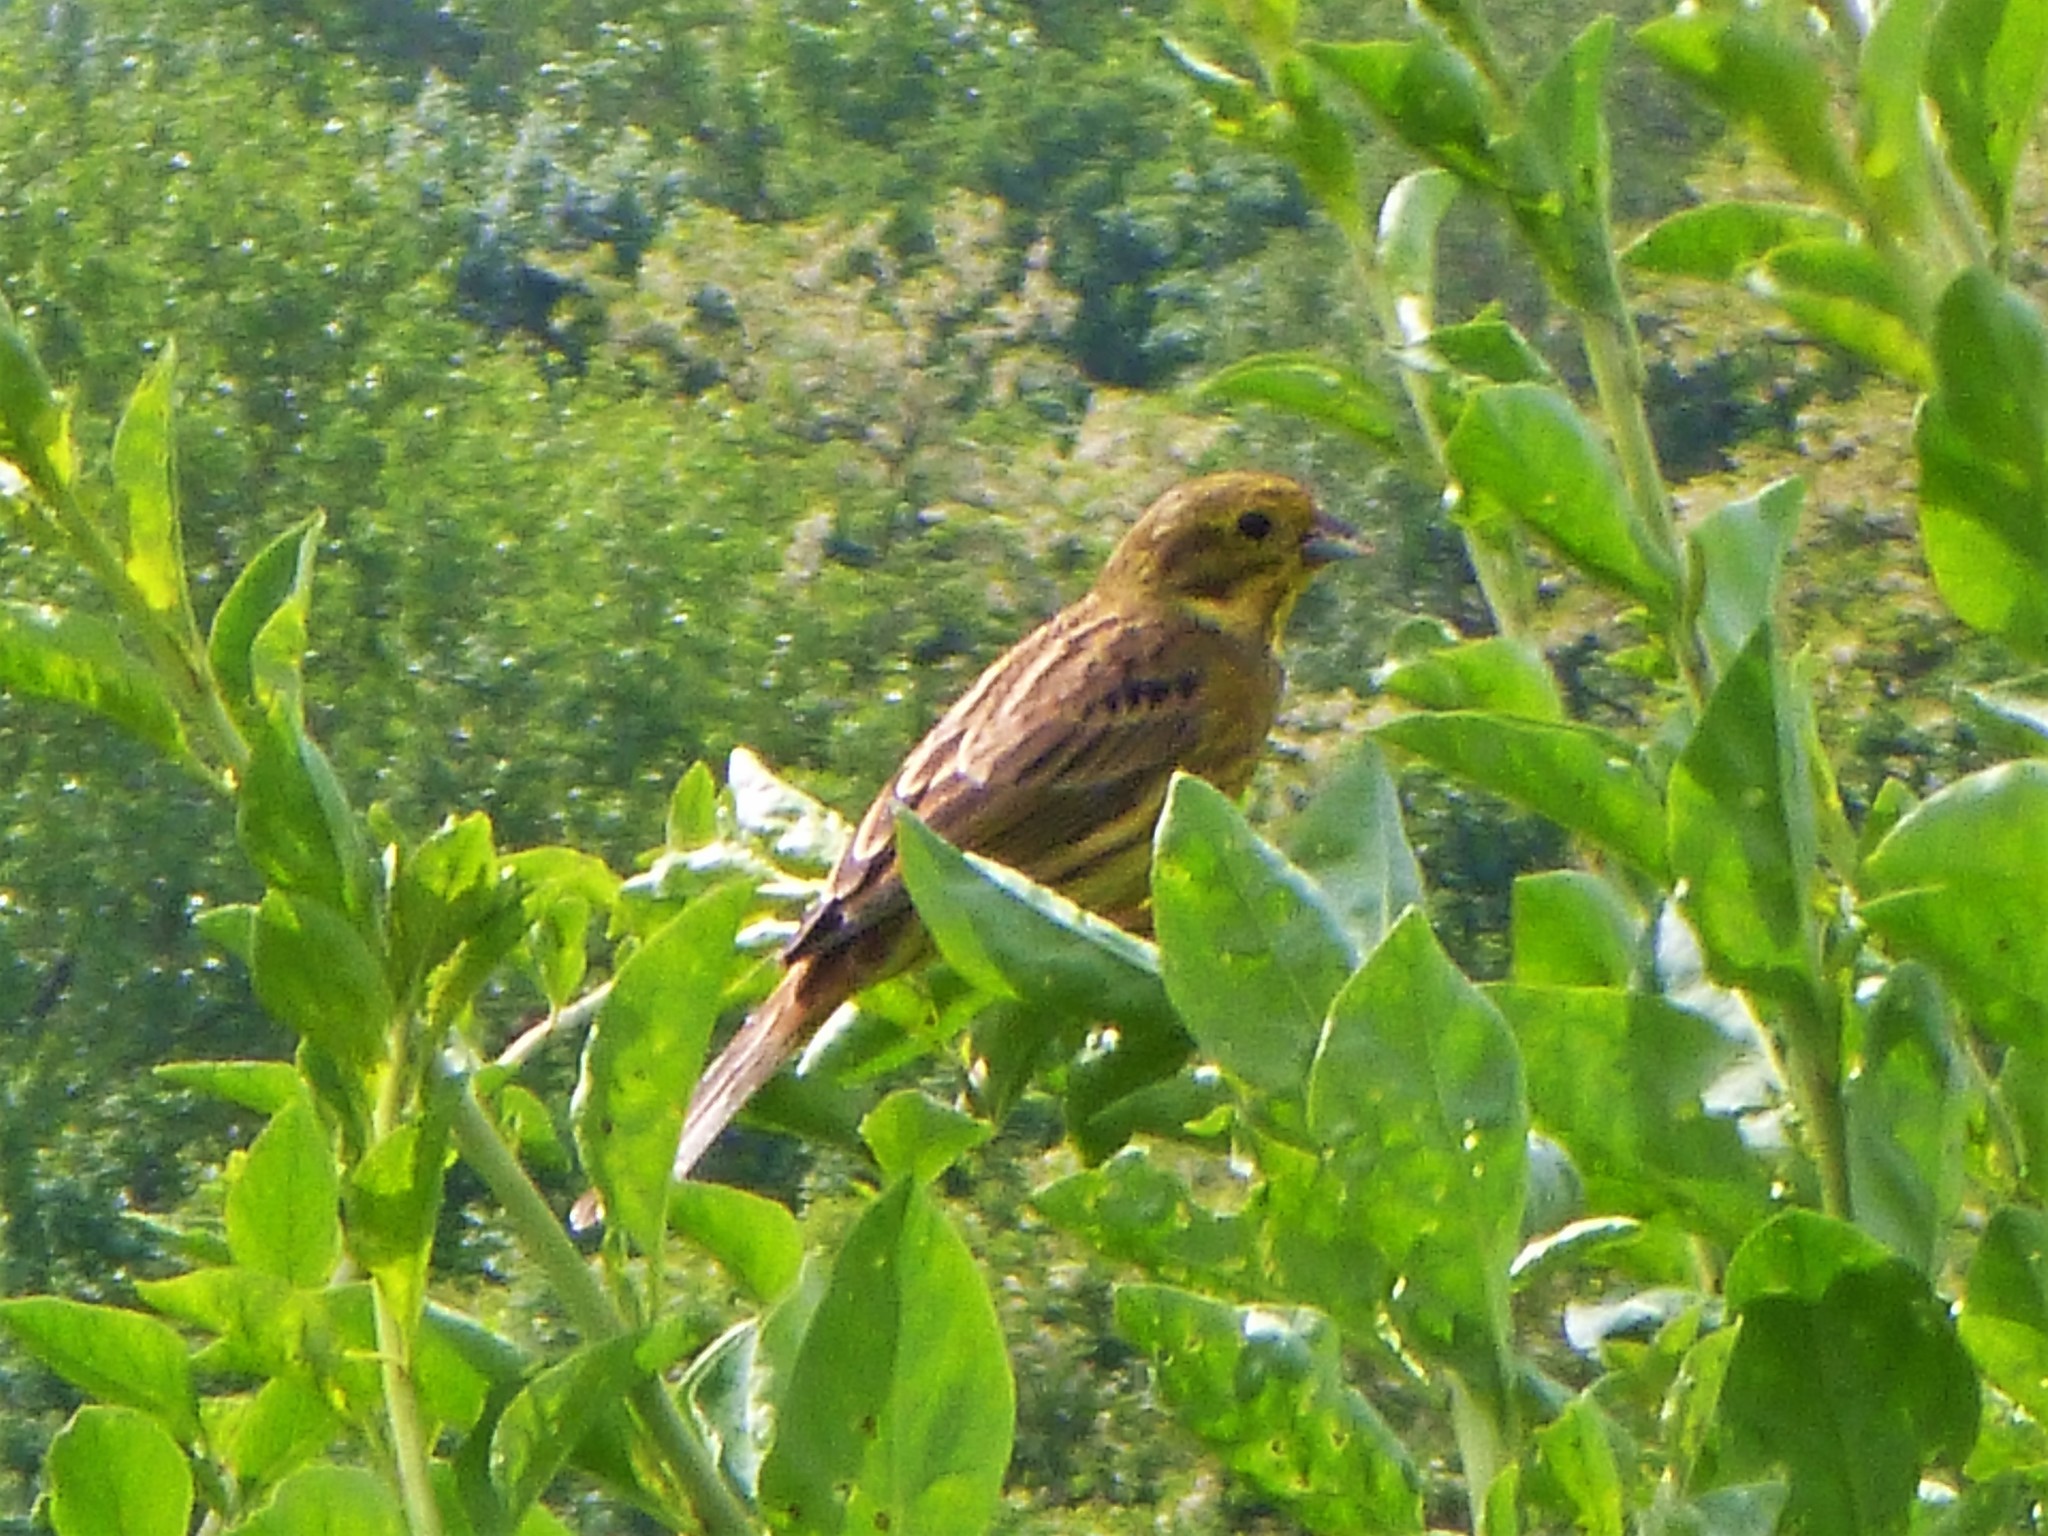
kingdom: Animalia
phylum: Chordata
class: Aves
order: Passeriformes
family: Emberizidae
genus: Emberiza
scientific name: Emberiza citrinella
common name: Yellowhammer
